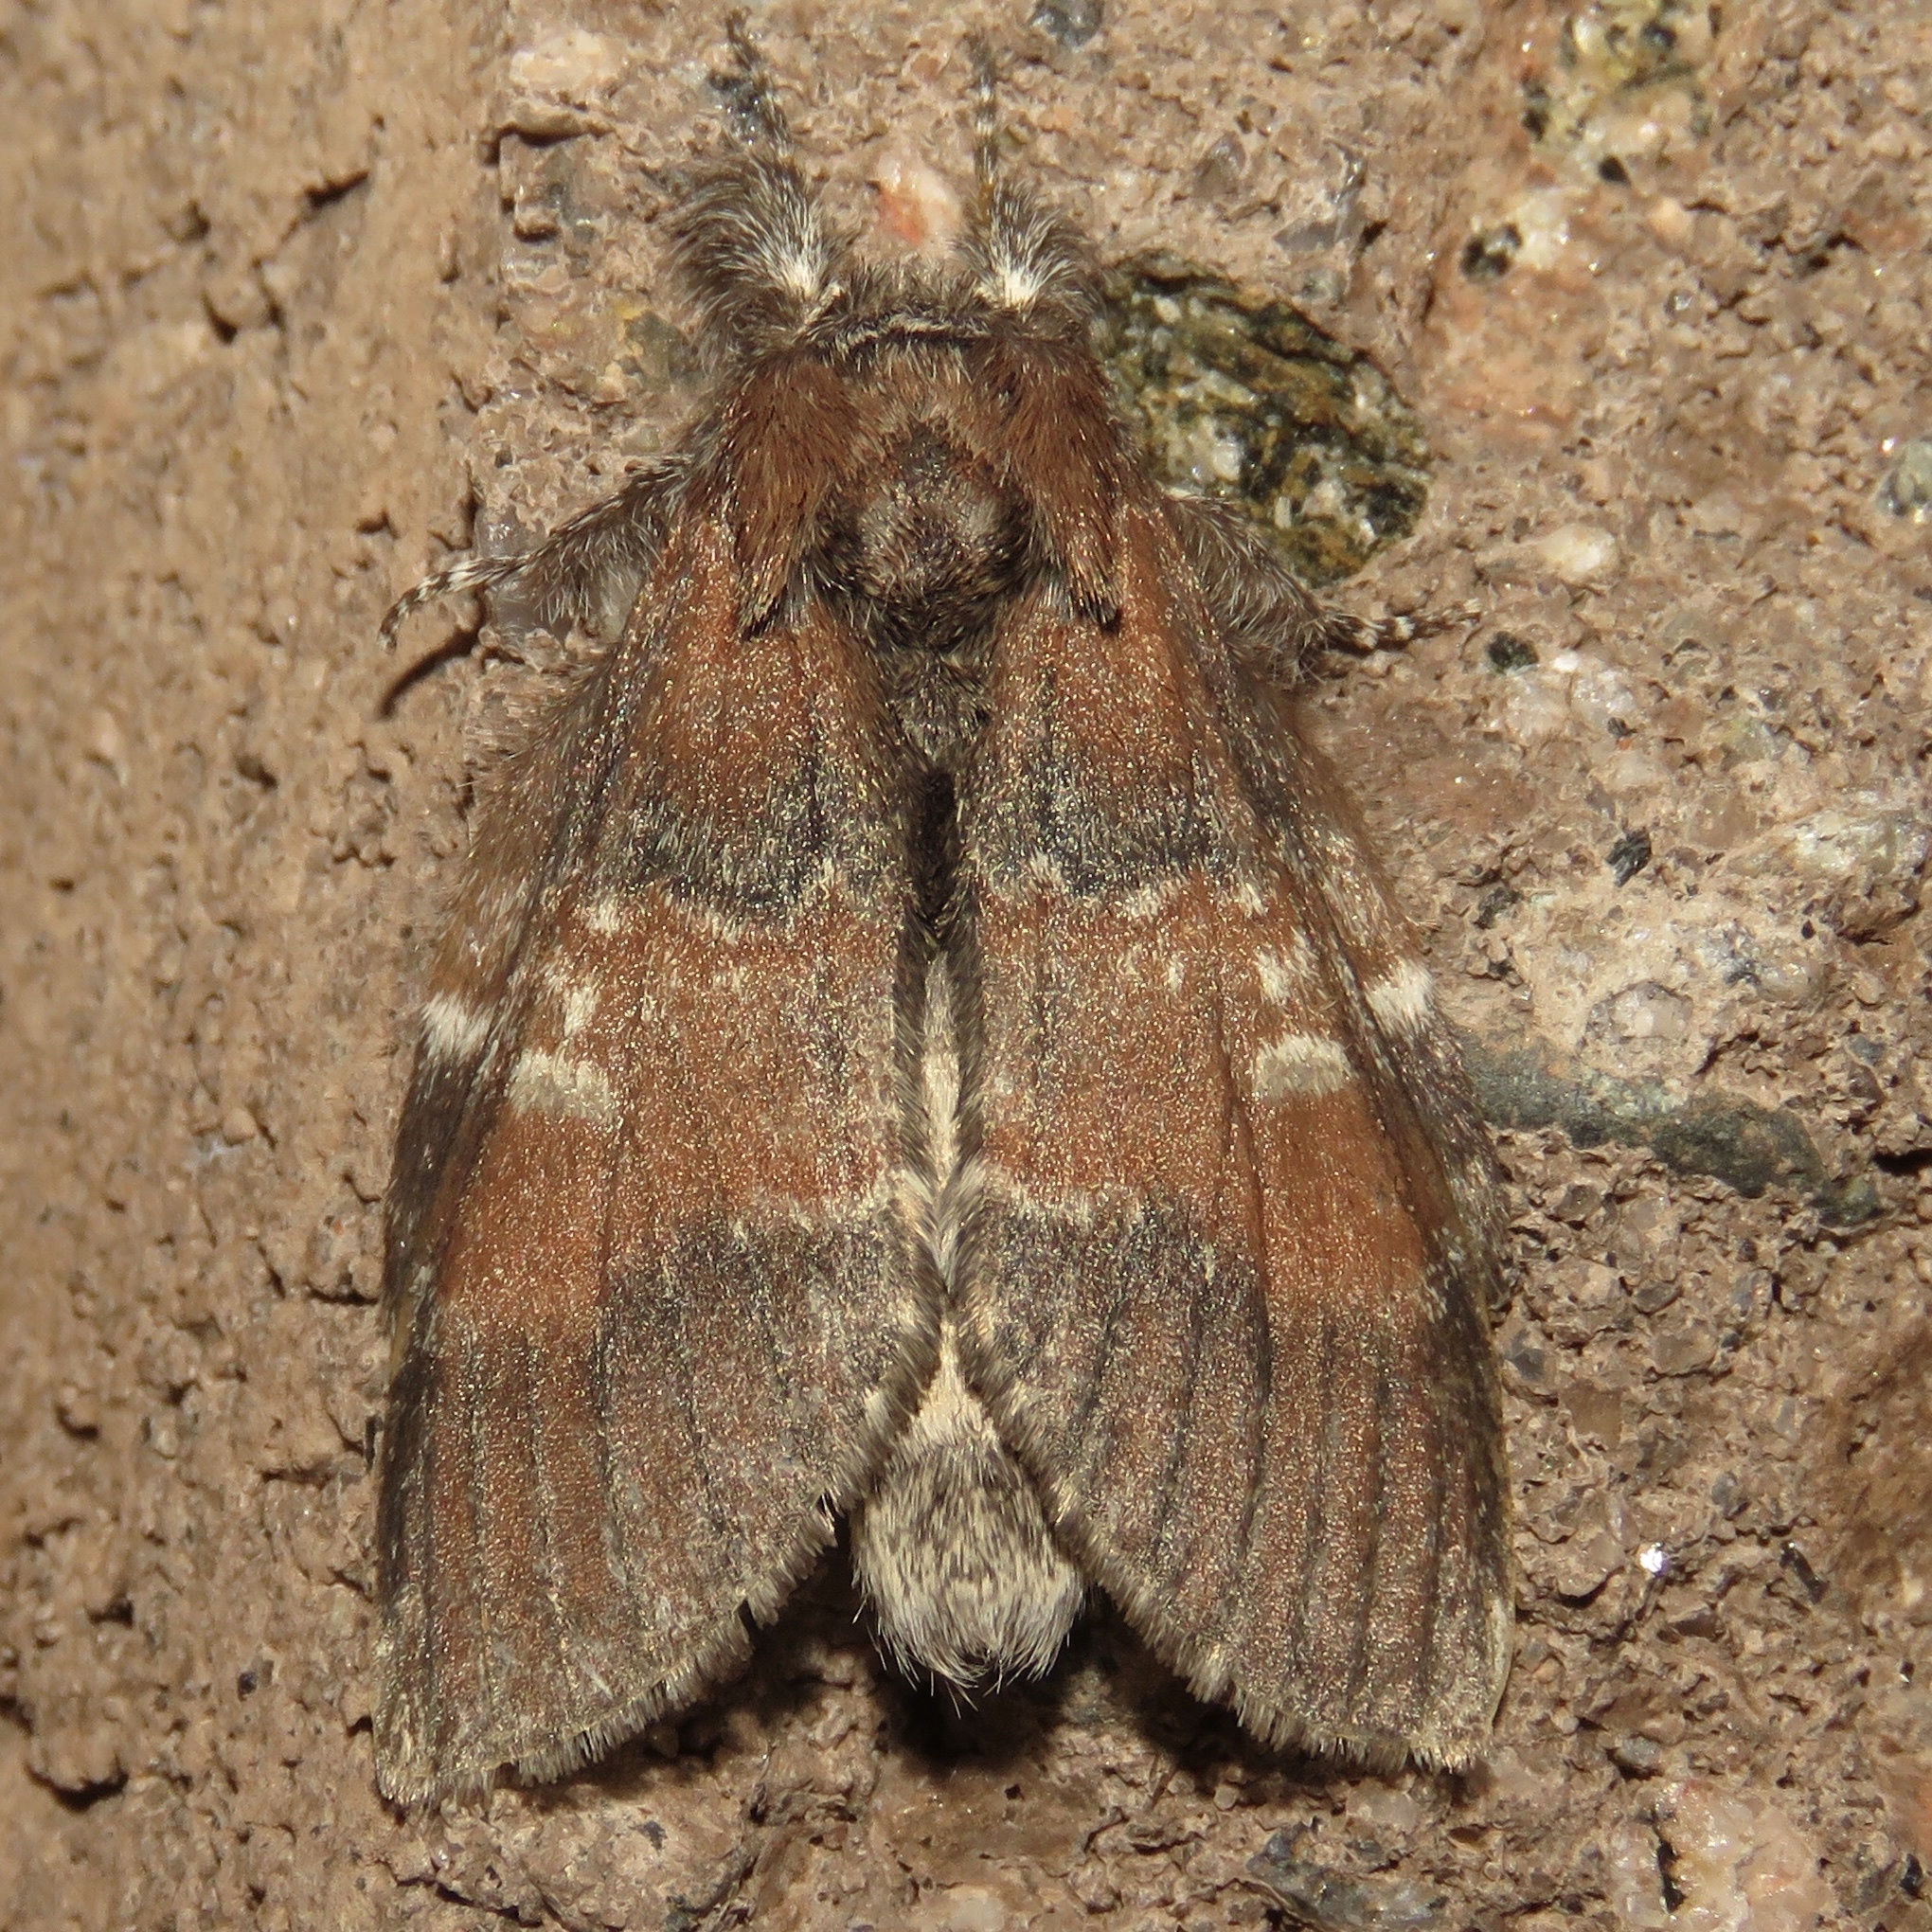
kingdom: Animalia
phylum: Arthropoda
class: Insecta
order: Lepidoptera
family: Notodontidae
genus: Peridea
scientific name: Peridea ferruginea
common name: Chocolate prominent
